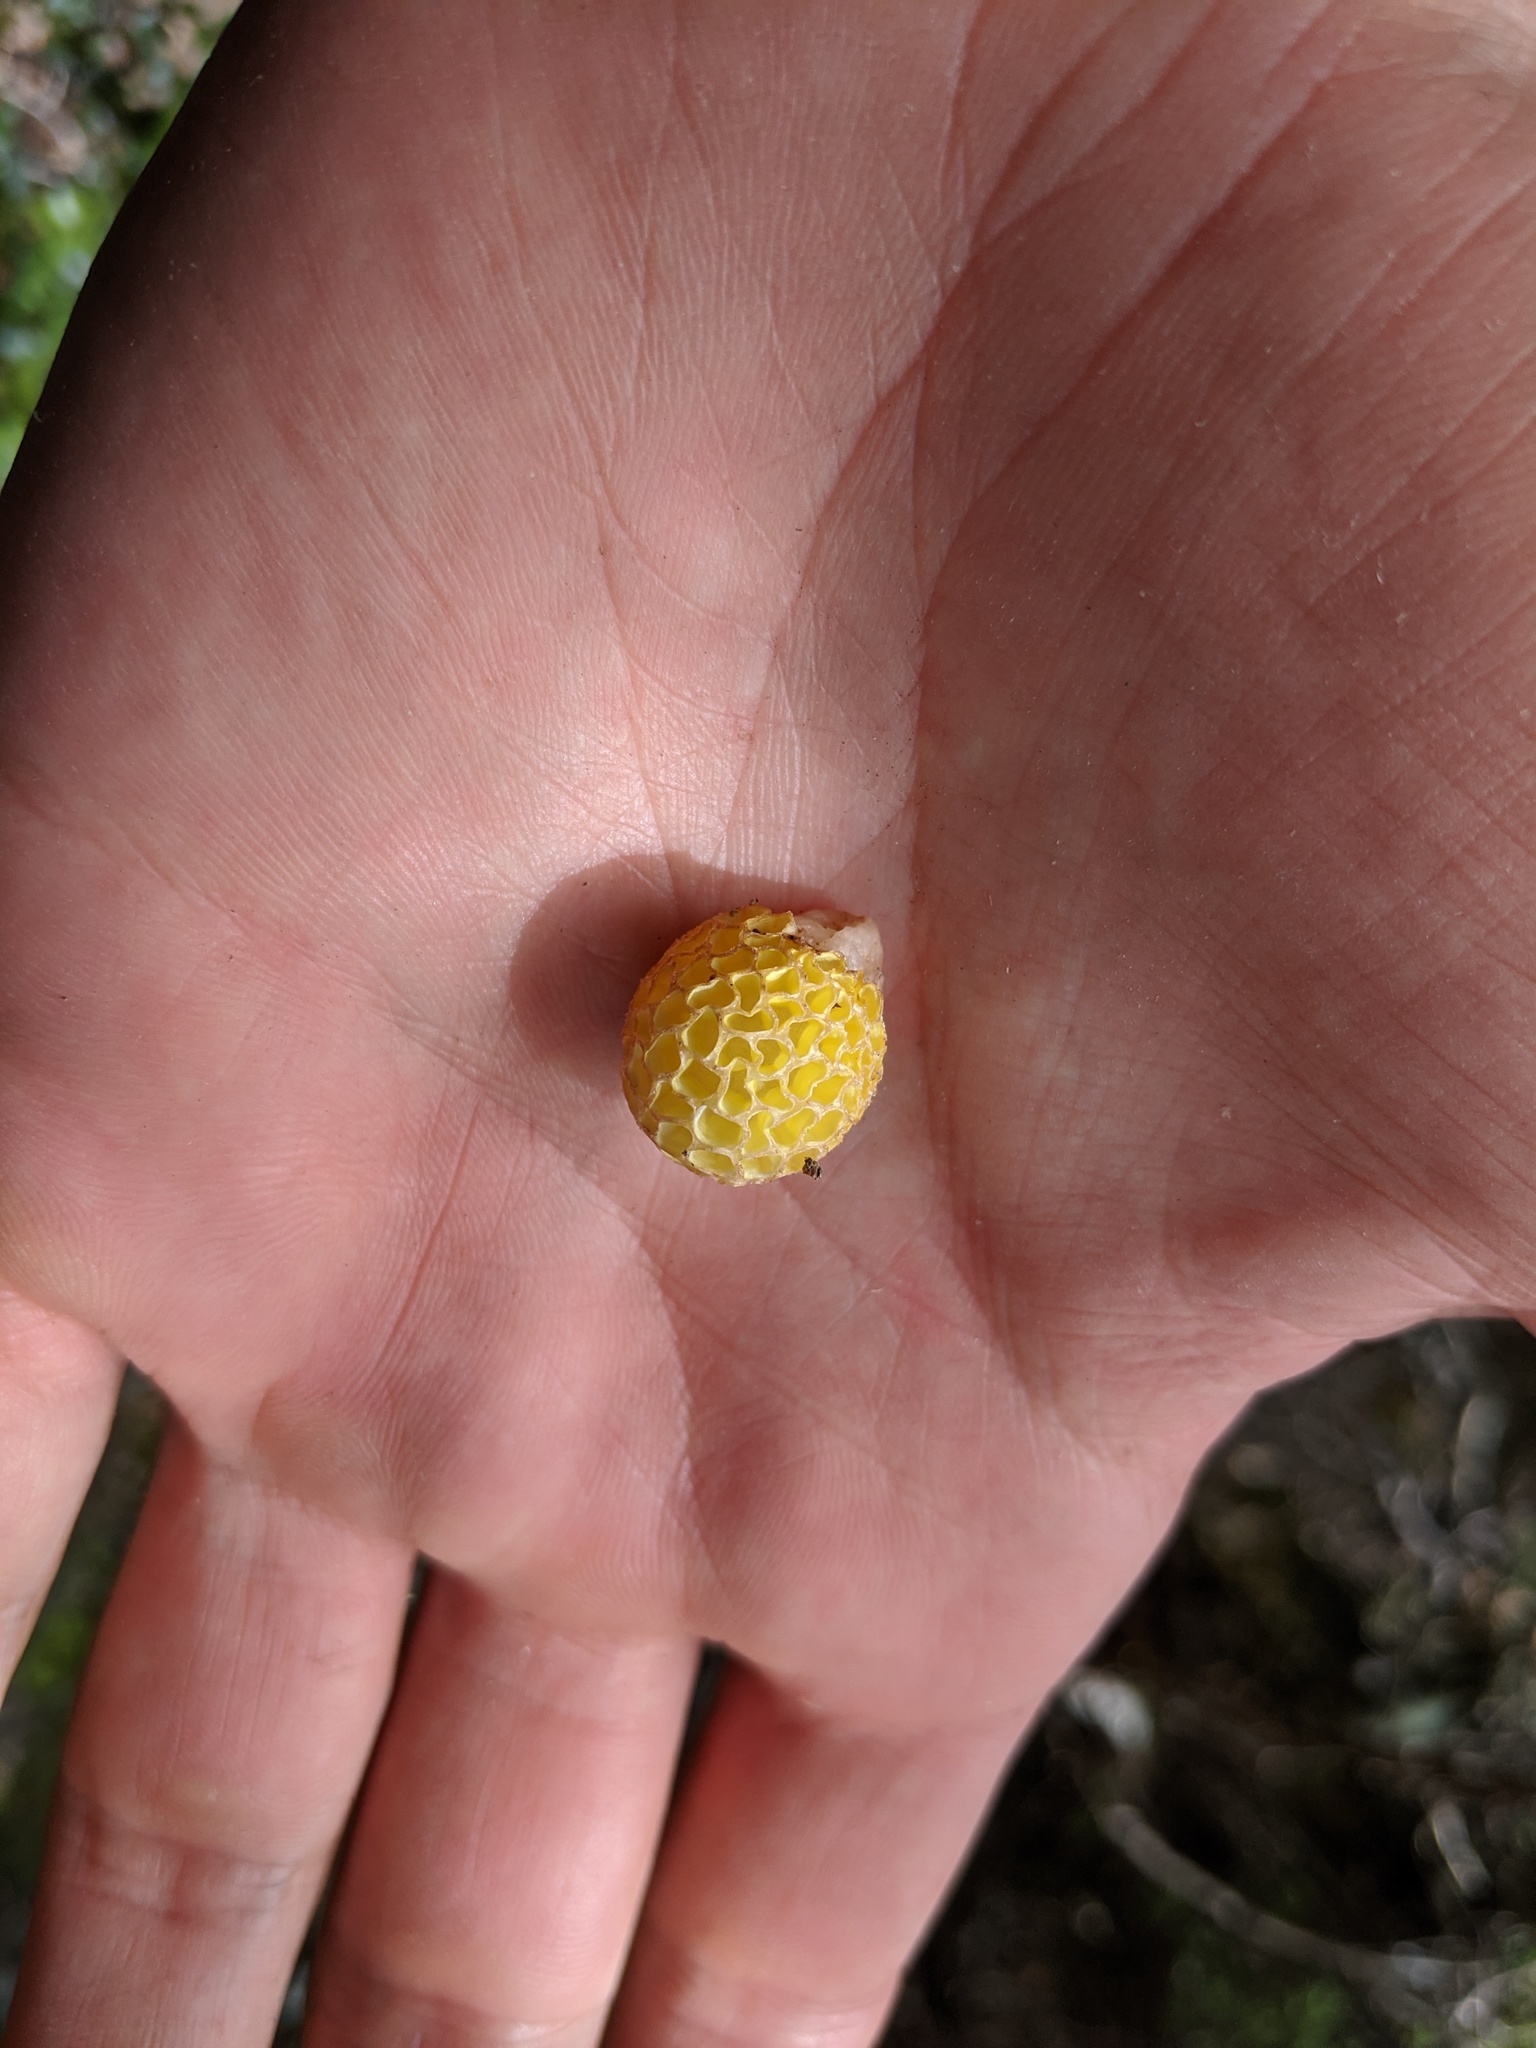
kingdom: Fungi
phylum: Ascomycota
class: Leotiomycetes
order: Cyttariales
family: Cyttariaceae
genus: Cyttaria
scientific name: Cyttaria gunnii
